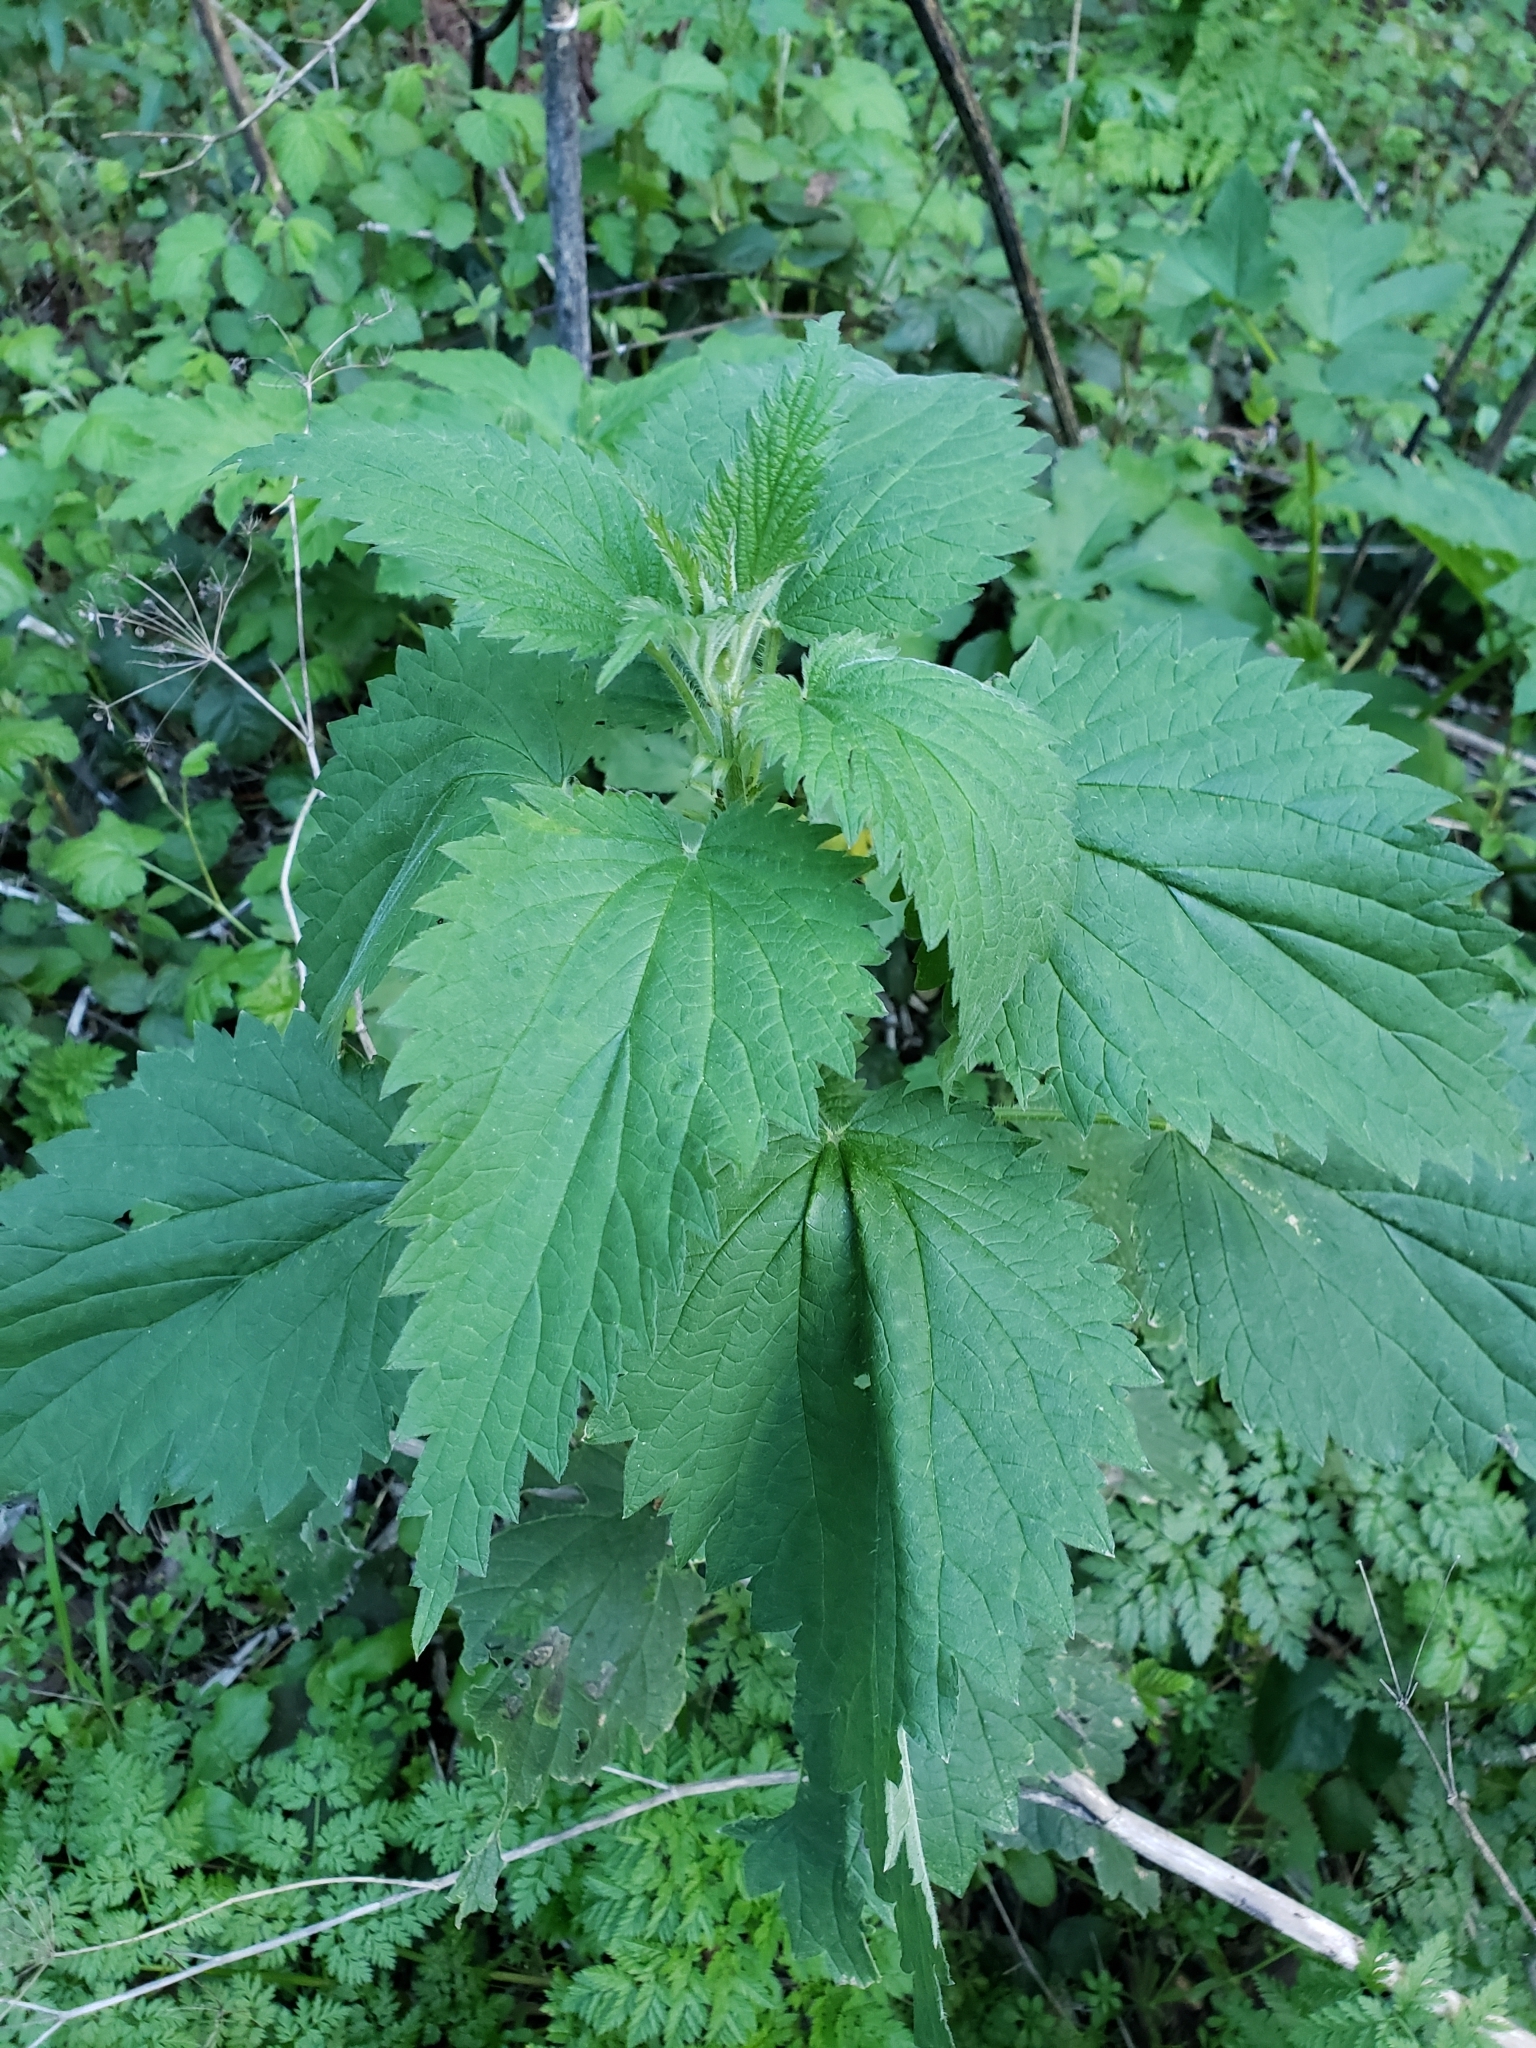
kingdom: Plantae
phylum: Tracheophyta
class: Magnoliopsida
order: Rosales
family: Urticaceae
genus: Urtica
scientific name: Urtica dioica
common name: Common nettle
